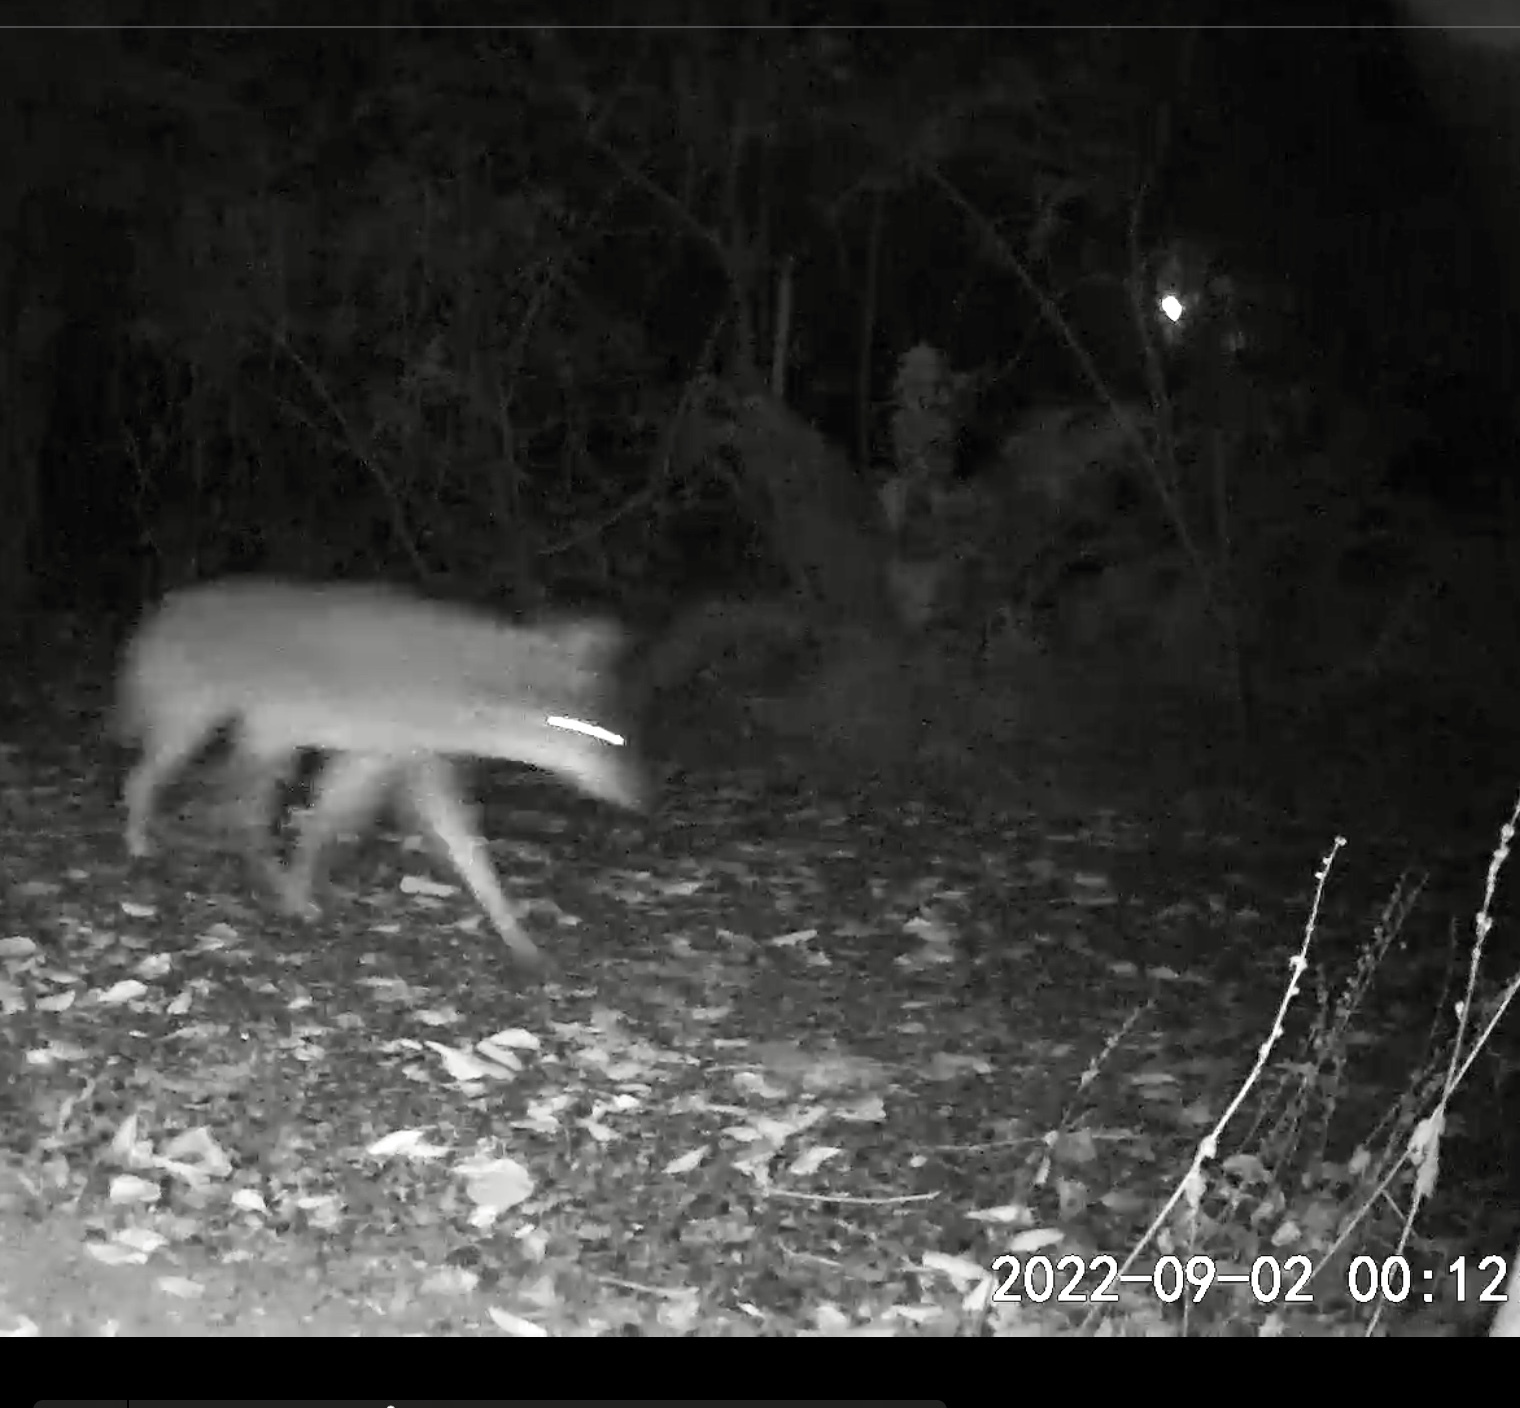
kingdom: Animalia
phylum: Chordata
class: Mammalia
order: Carnivora
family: Canidae
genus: Canis
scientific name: Canis latrans
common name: Coyote
